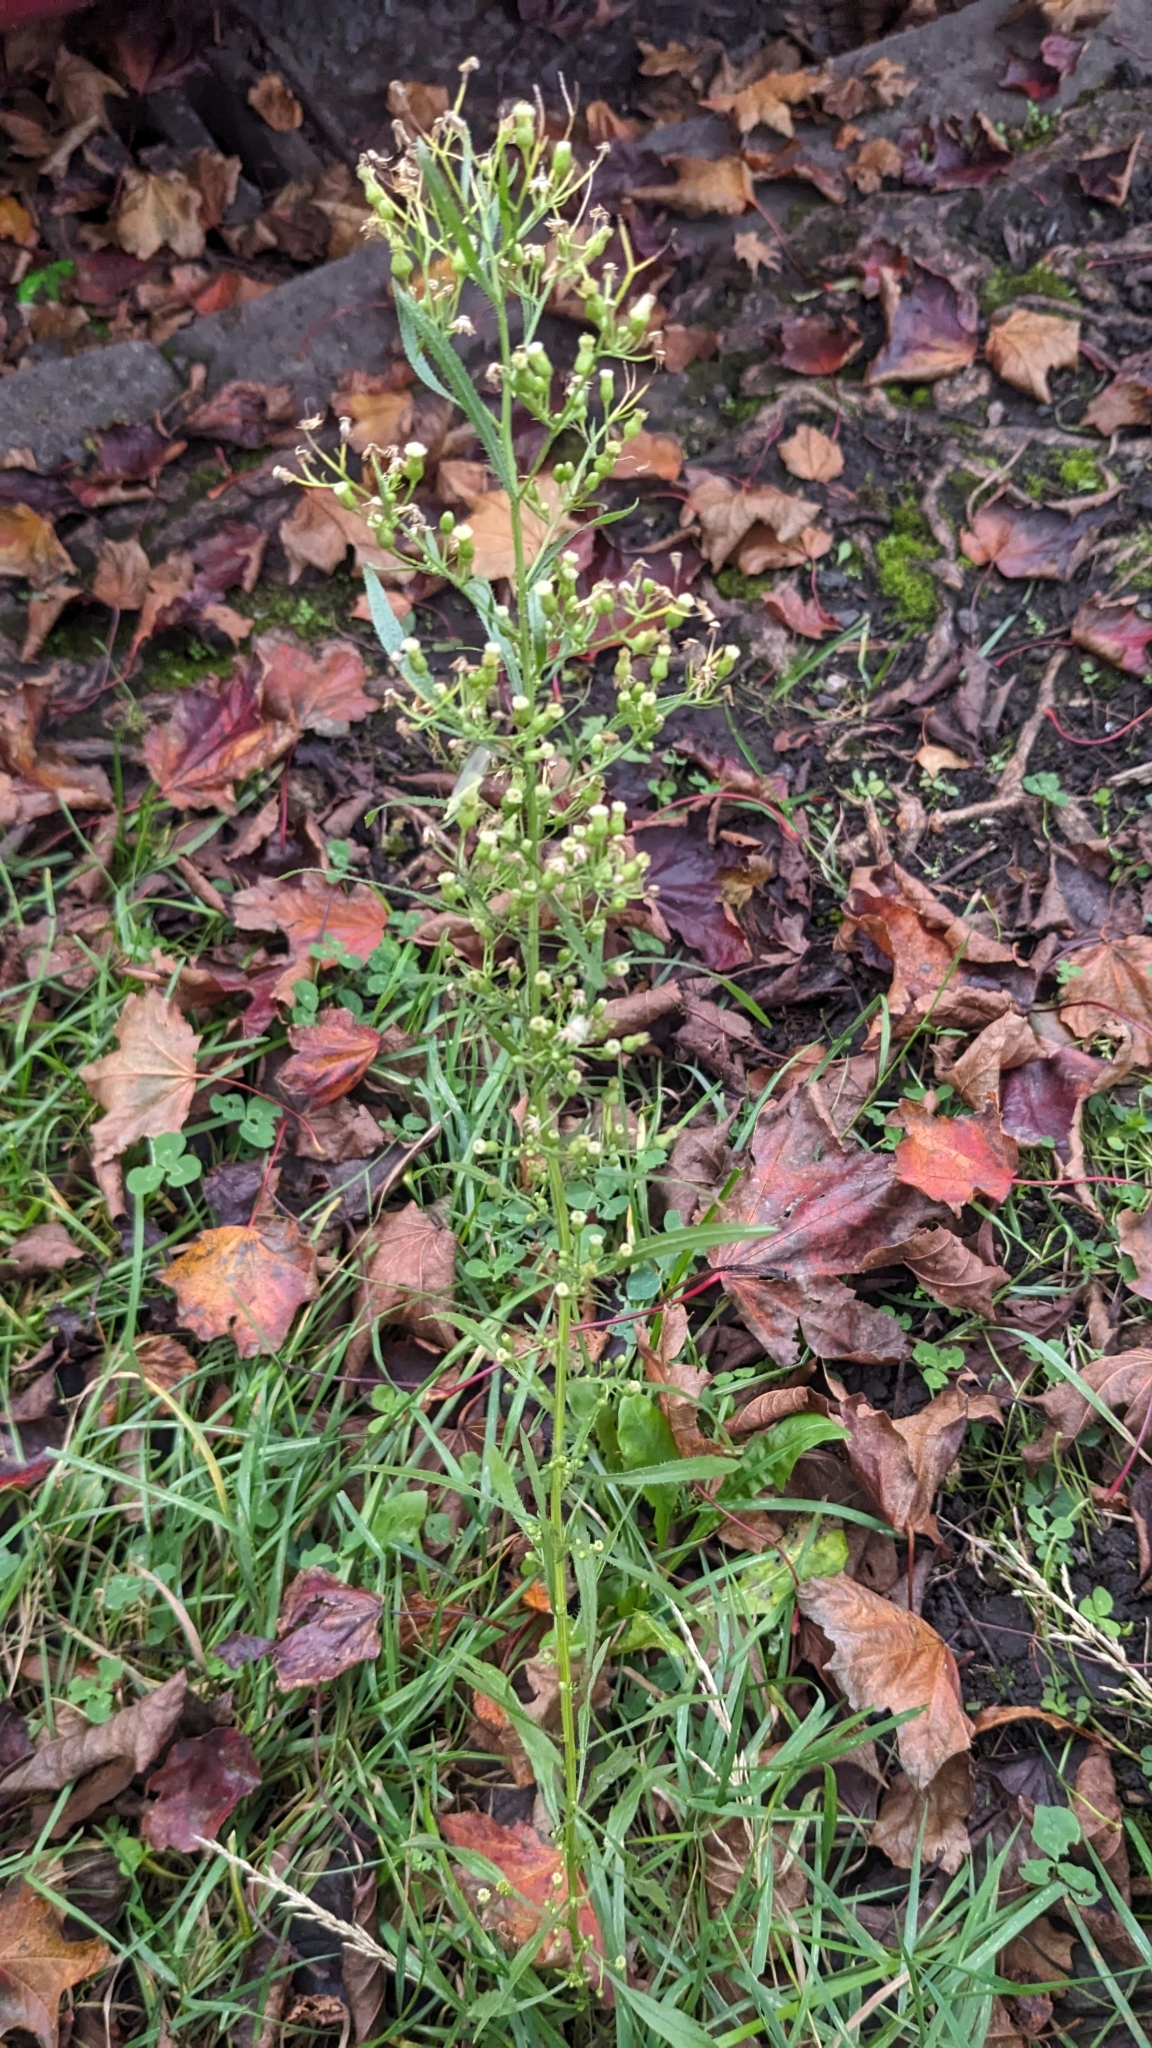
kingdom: Plantae
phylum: Tracheophyta
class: Magnoliopsida
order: Asterales
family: Asteraceae
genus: Erigeron
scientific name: Erigeron canadensis
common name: Canadian fleabane
